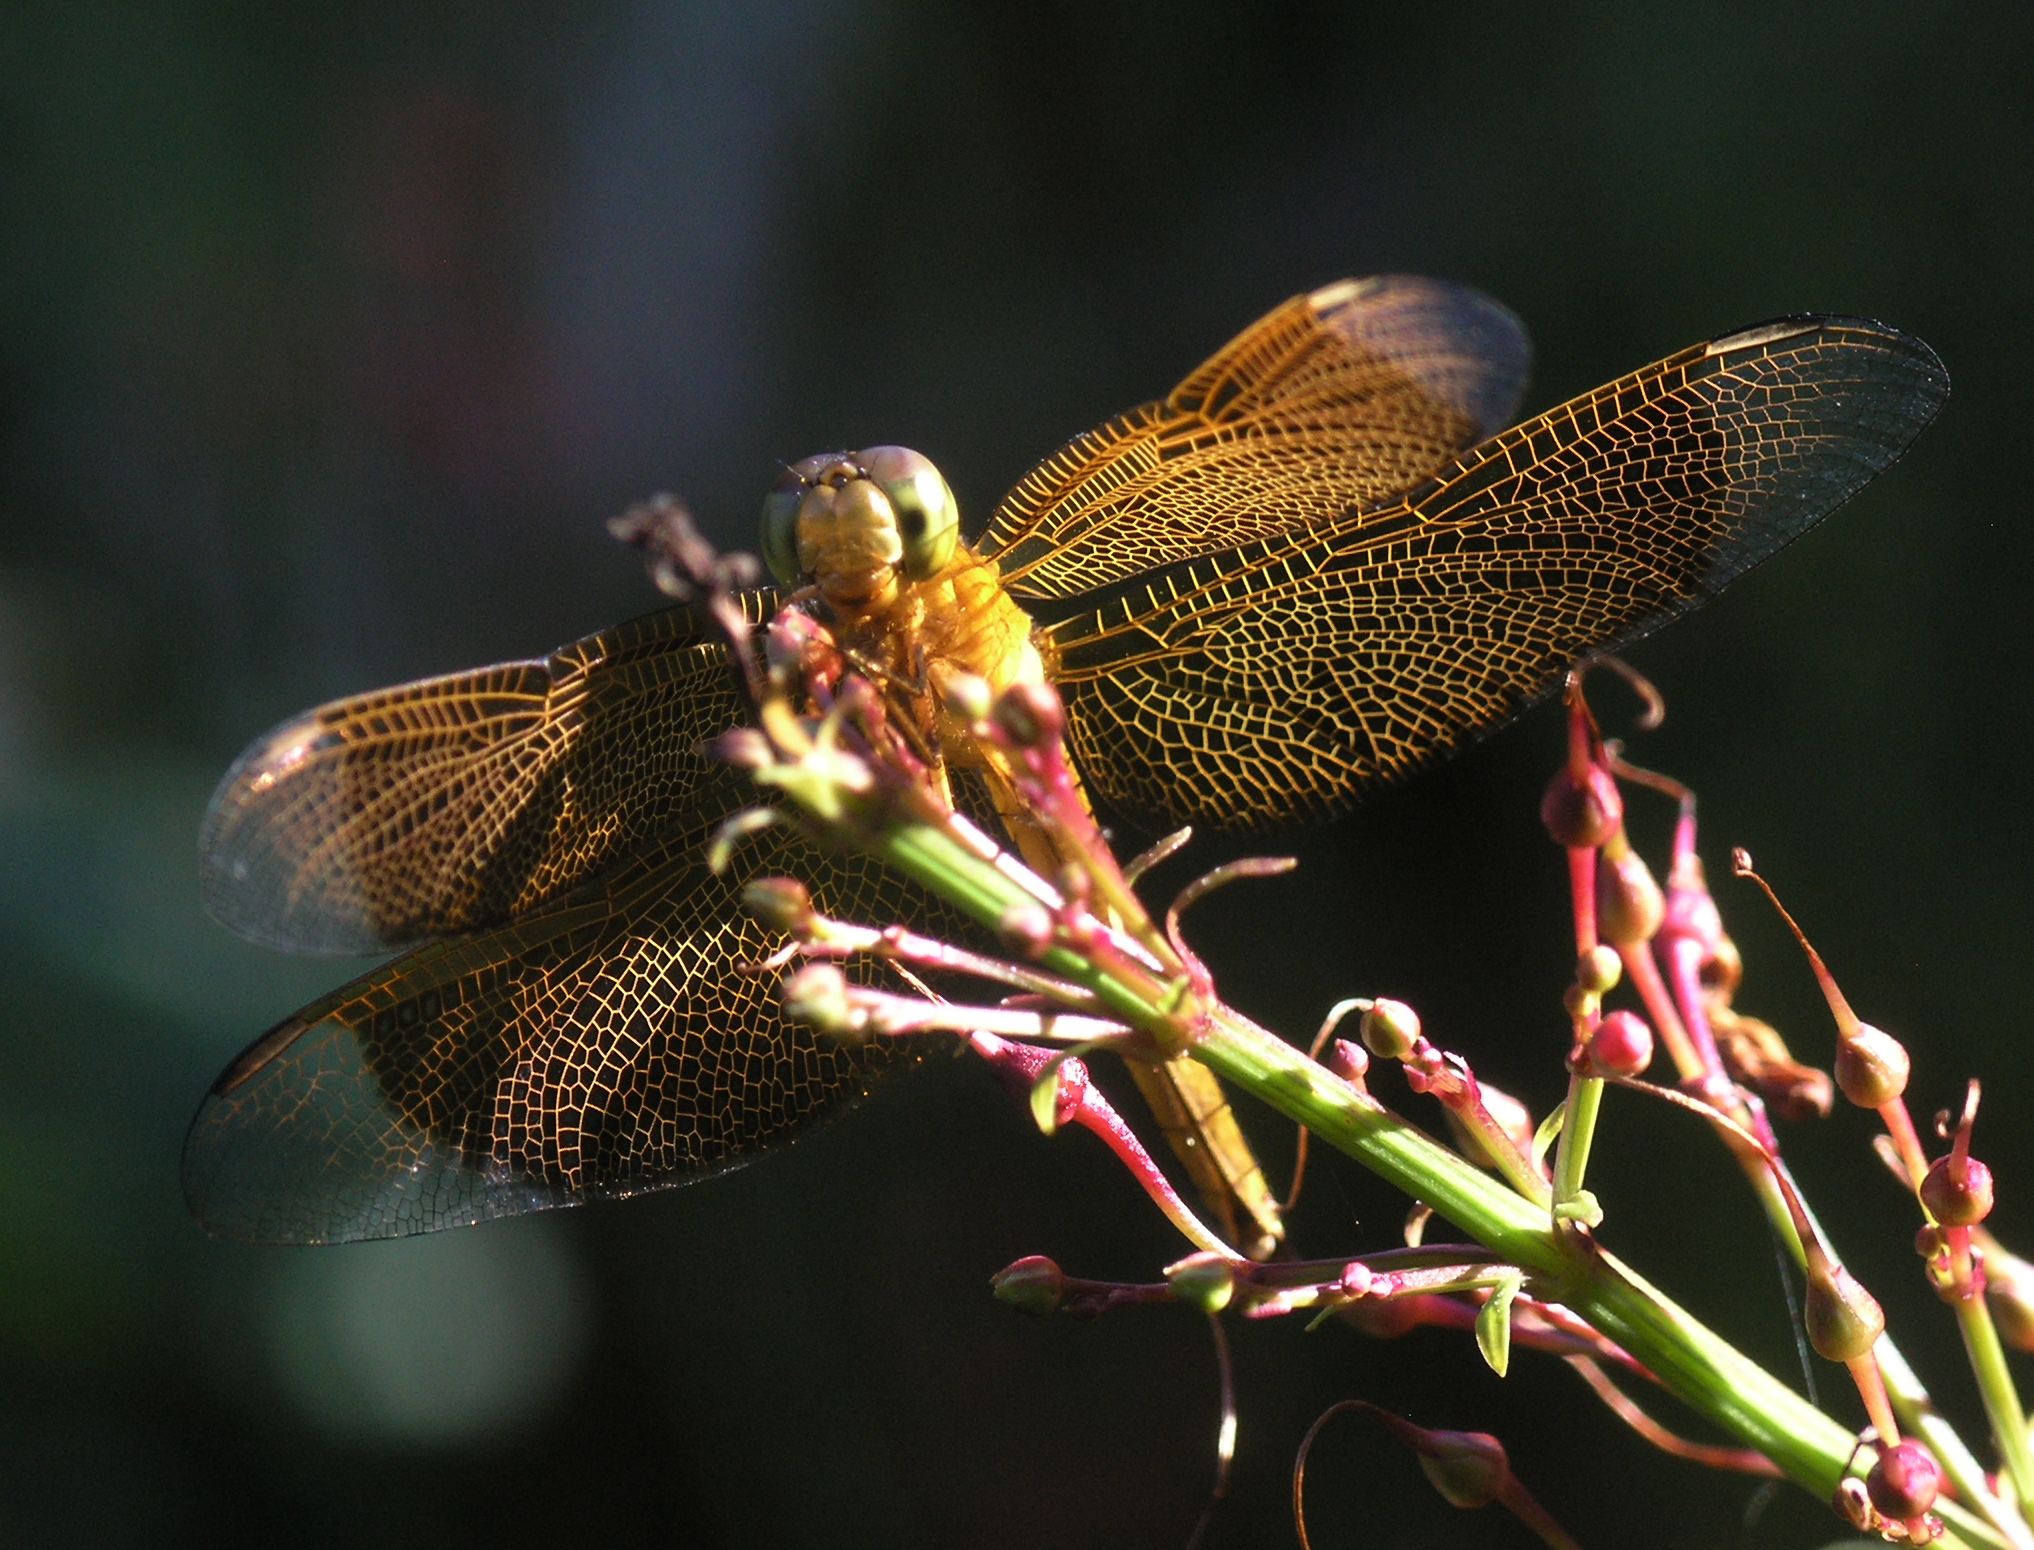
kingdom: Animalia
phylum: Arthropoda
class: Insecta
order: Odonata
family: Libellulidae
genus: Neurothemis
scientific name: Neurothemis ramburii
